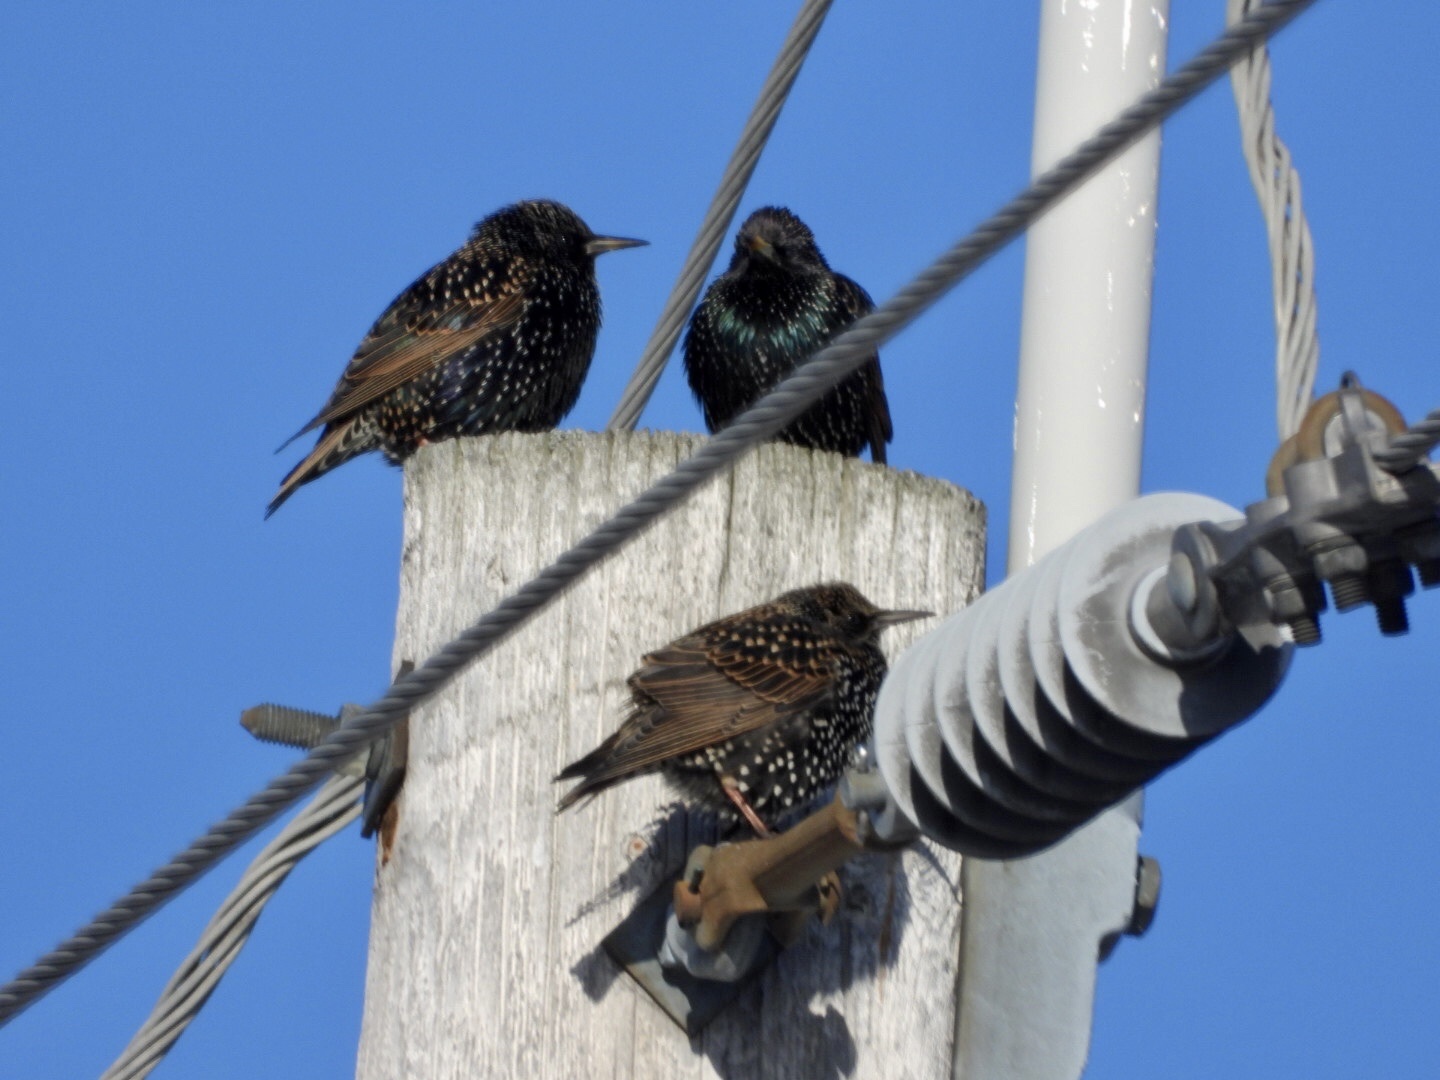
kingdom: Animalia
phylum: Chordata
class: Aves
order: Passeriformes
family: Sturnidae
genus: Sturnus
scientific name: Sturnus vulgaris
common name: Common starling
